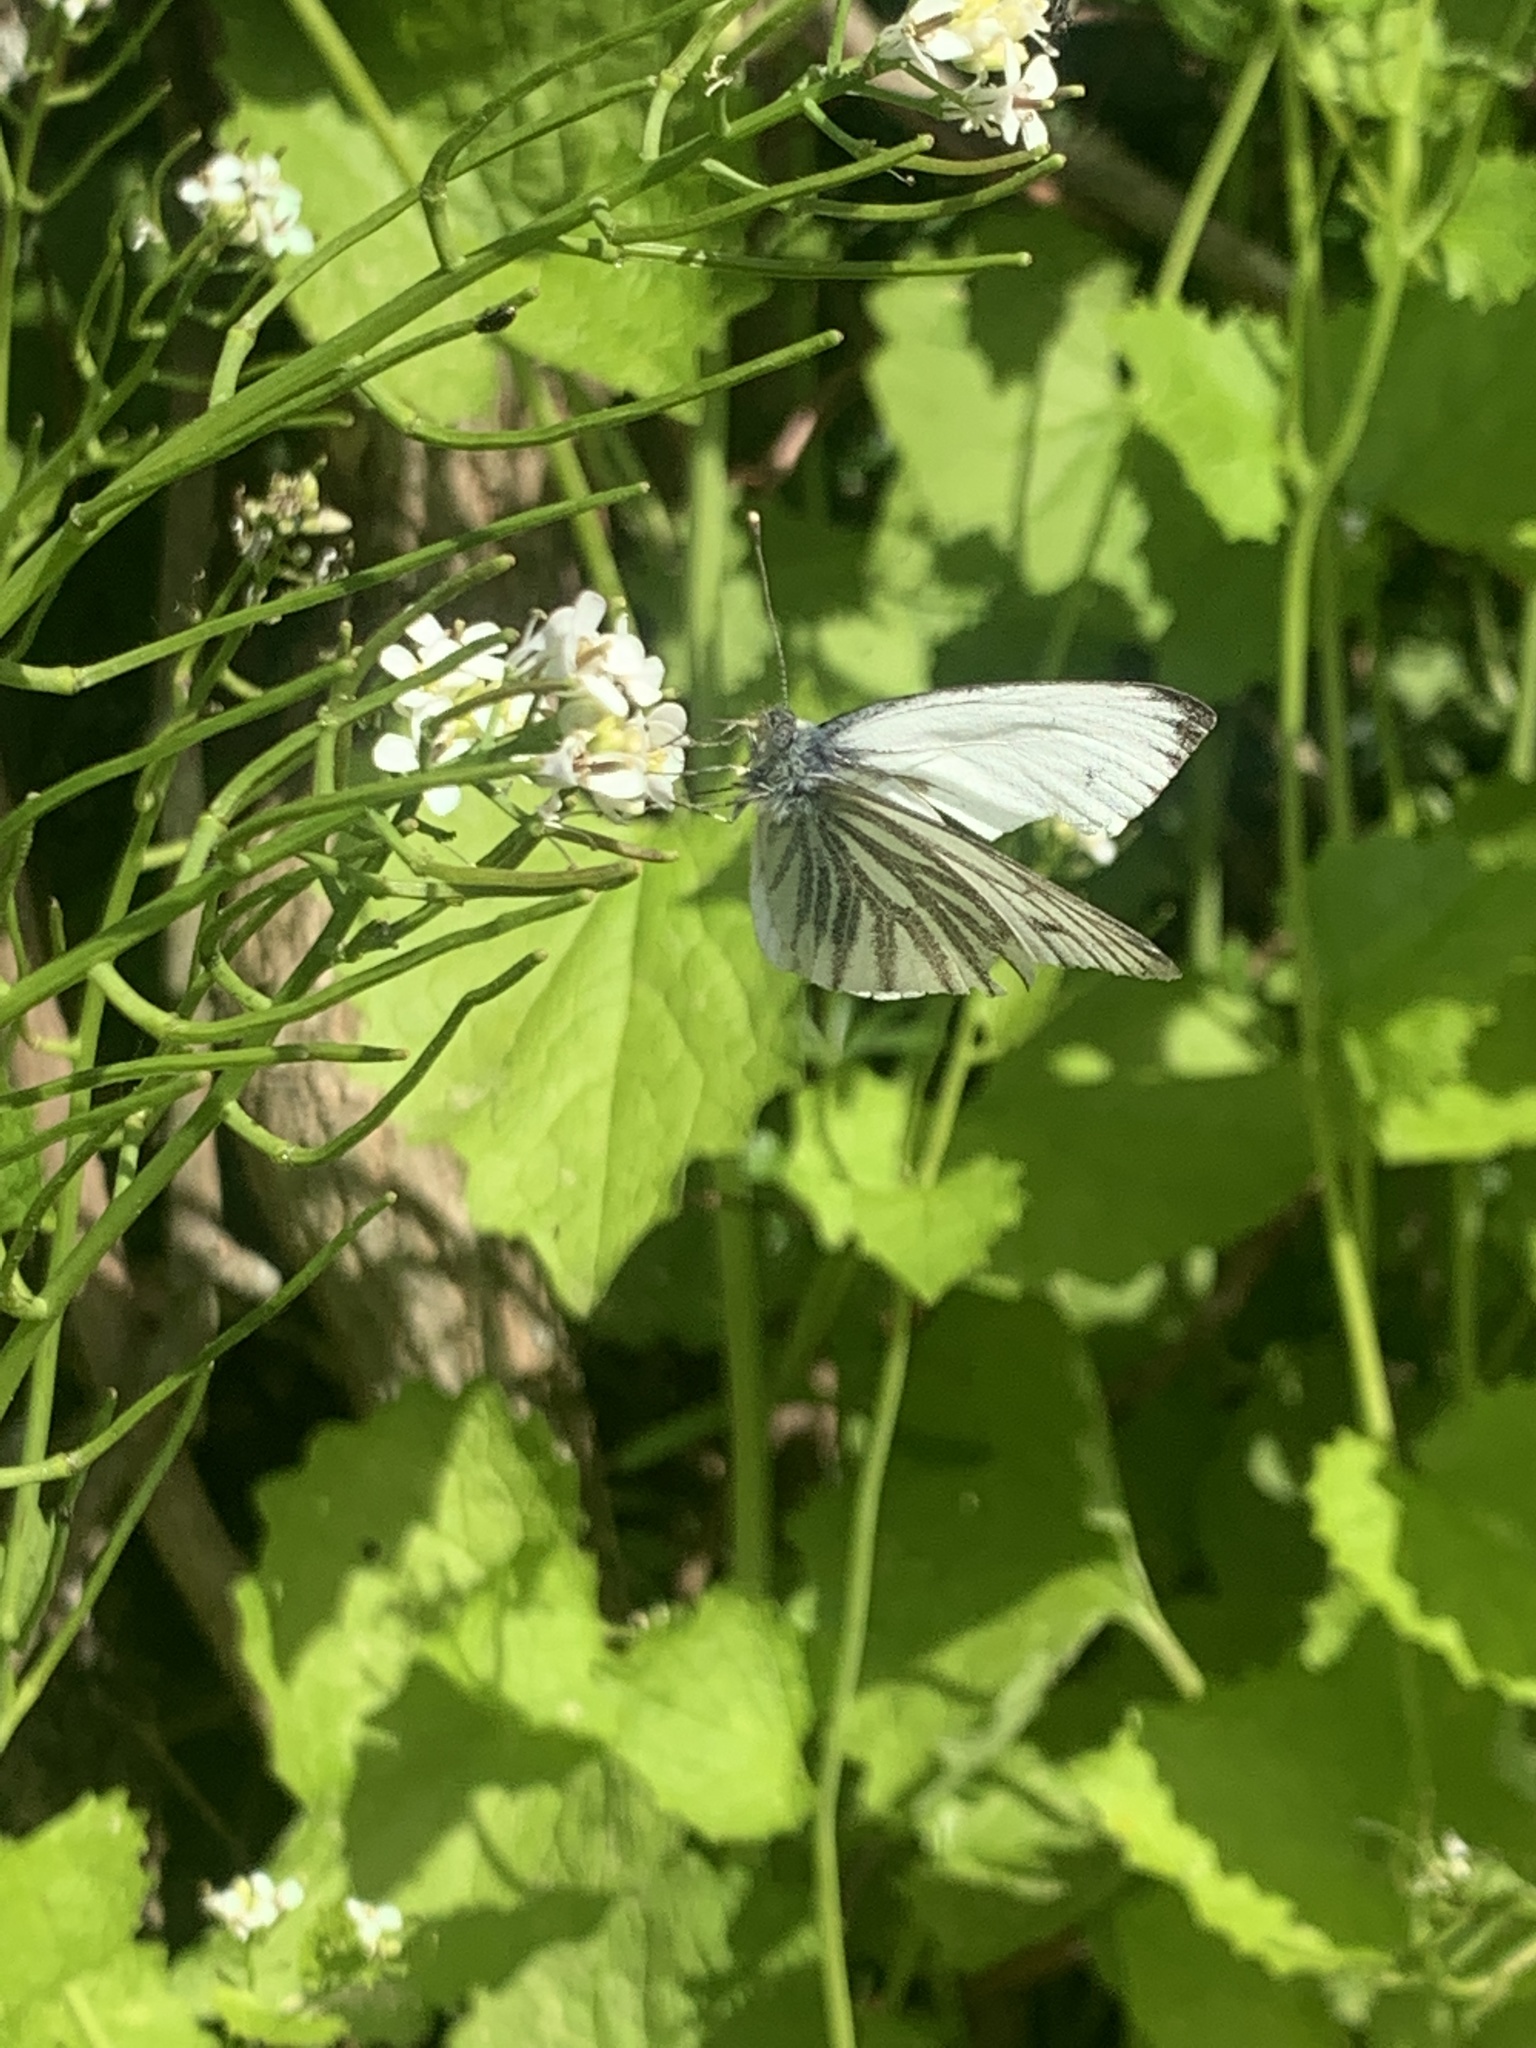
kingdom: Animalia
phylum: Arthropoda
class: Insecta
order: Lepidoptera
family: Pieridae
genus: Pieris
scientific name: Pieris napi
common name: Green-veined white
